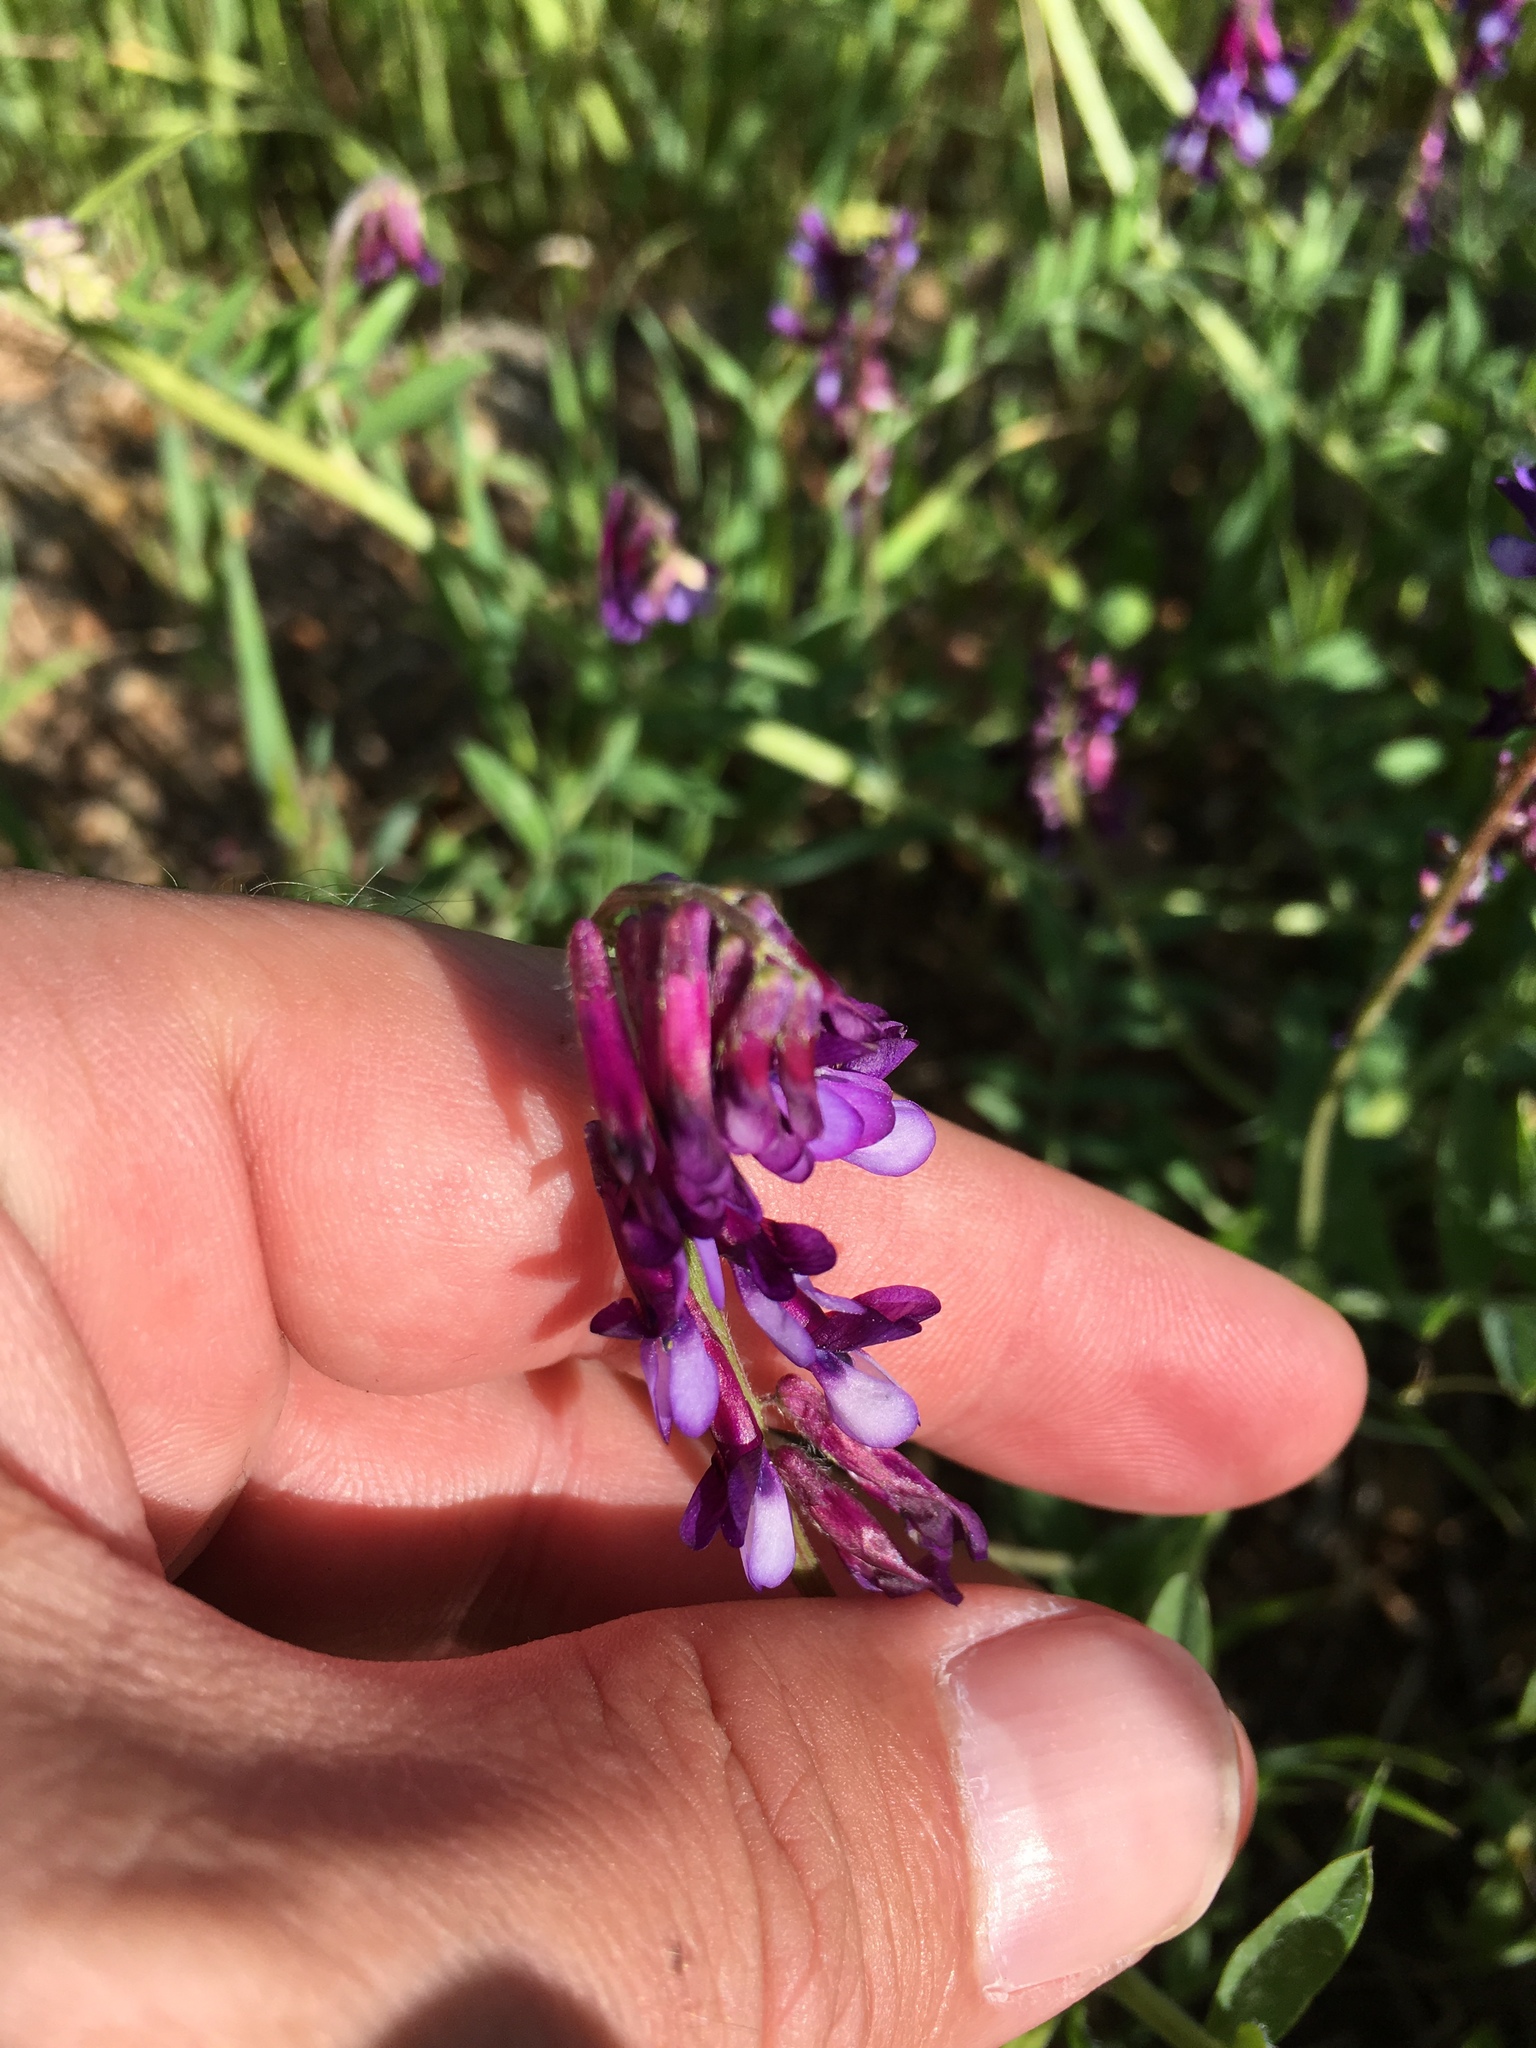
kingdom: Plantae
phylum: Tracheophyta
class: Magnoliopsida
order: Fabales
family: Fabaceae
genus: Vicia
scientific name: Vicia villosa
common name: Fodder vetch
